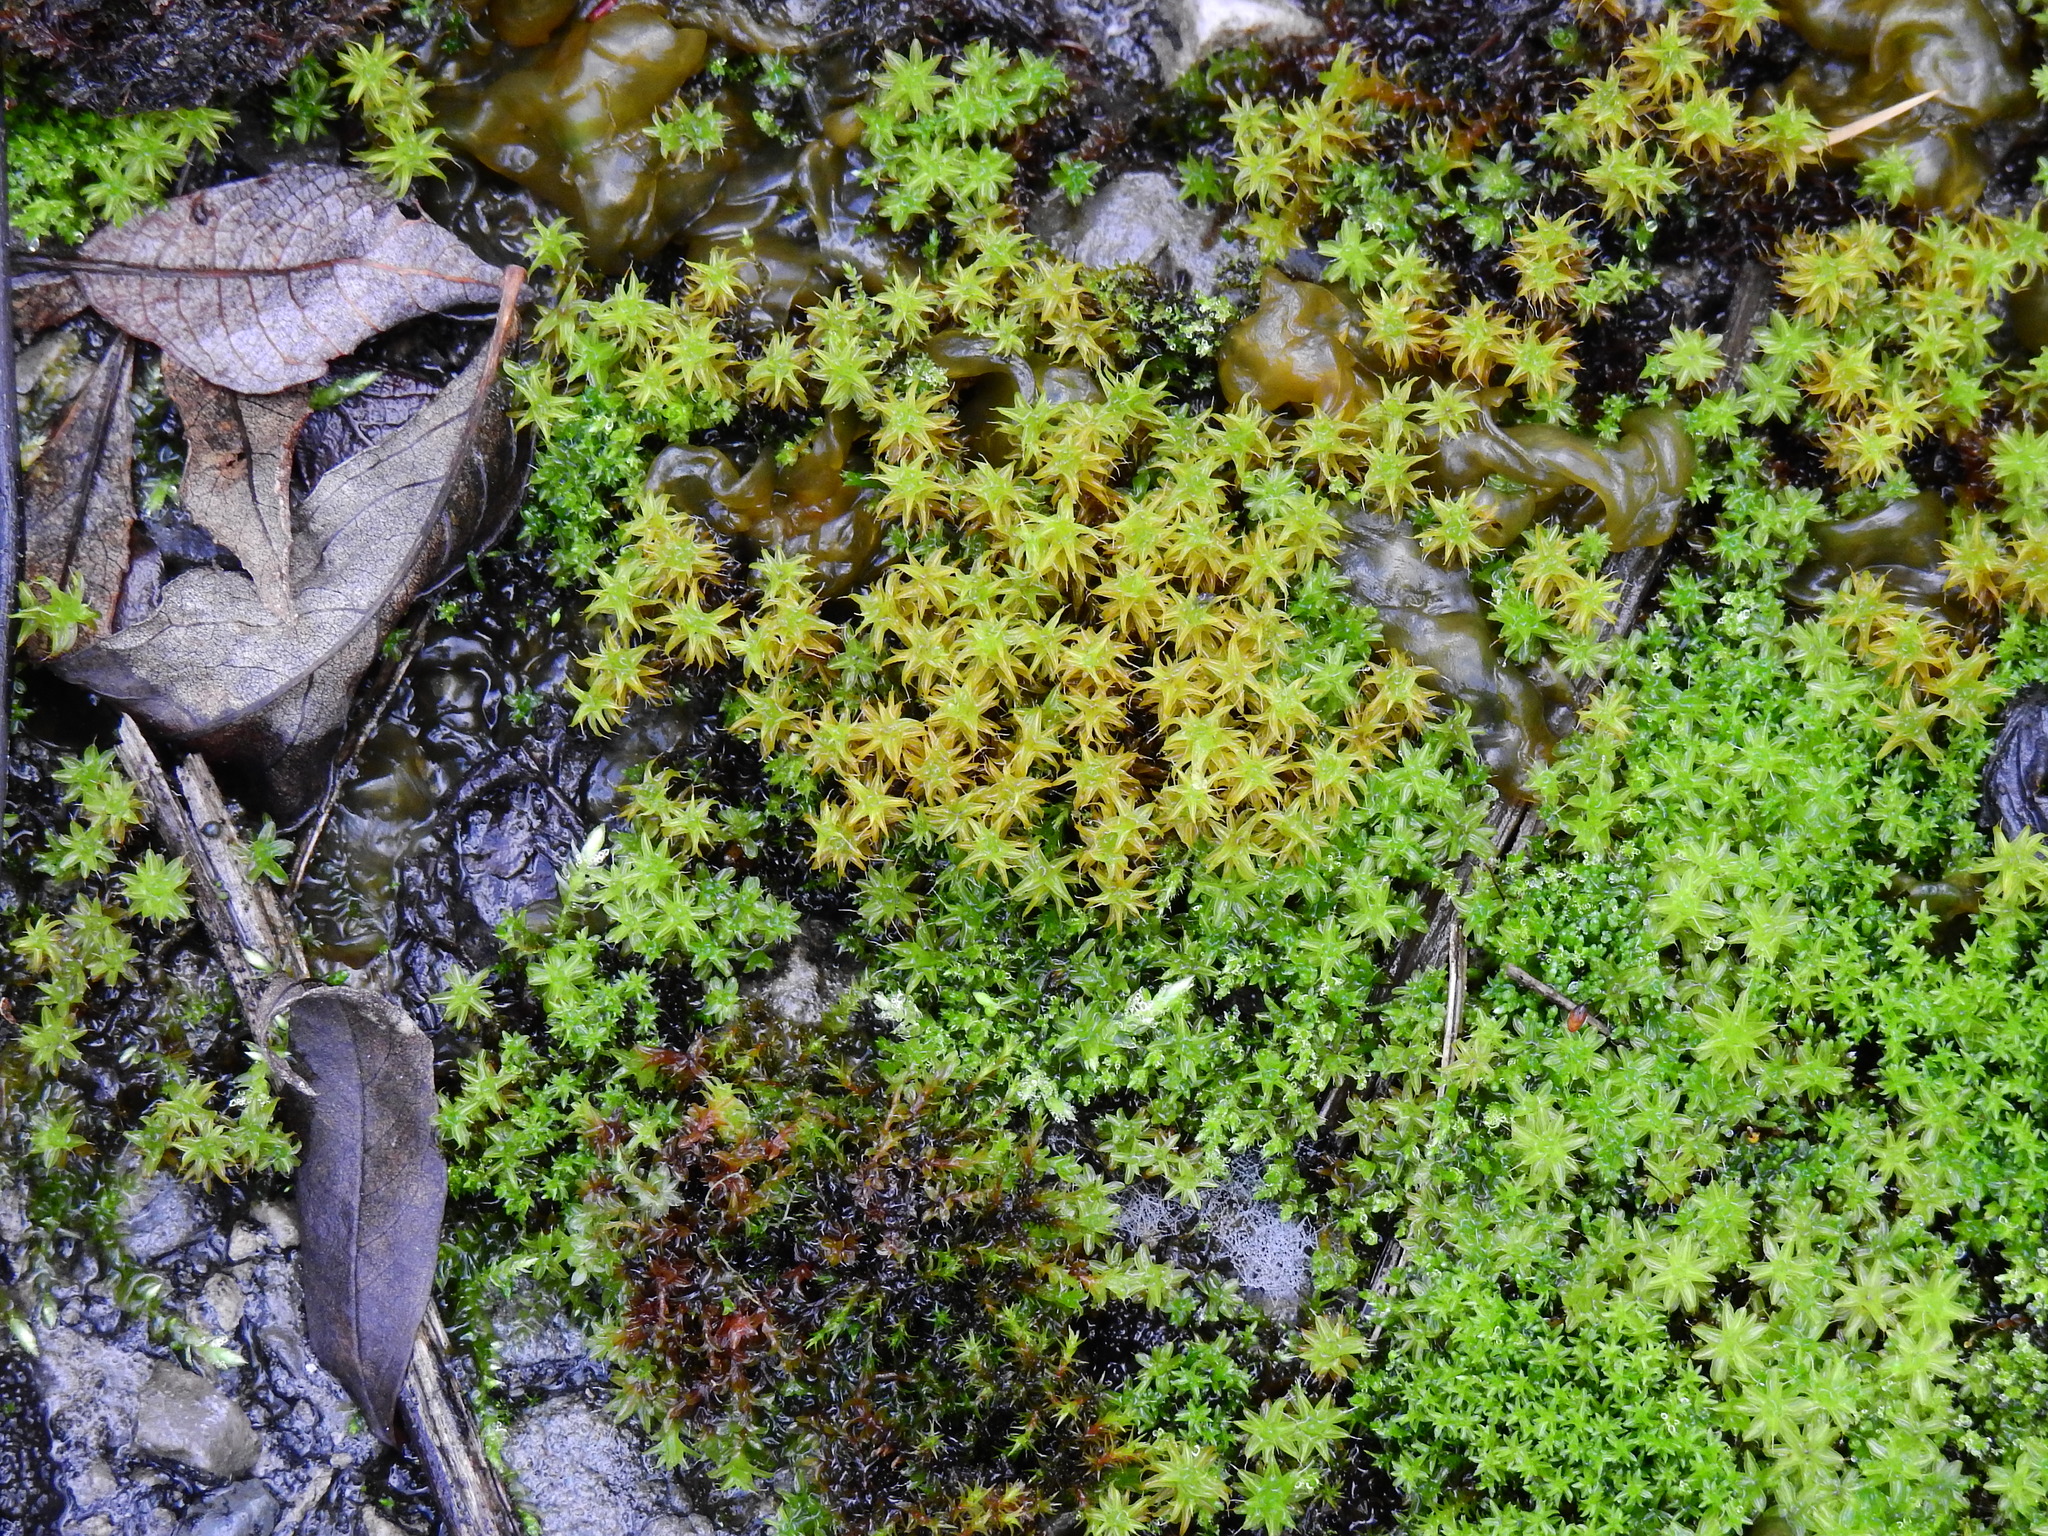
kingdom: Plantae
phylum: Bryophyta
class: Bryopsida
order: Pottiales
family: Pottiaceae
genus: Syntrichia
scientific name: Syntrichia ruralis
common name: Sidewalk screw moss
